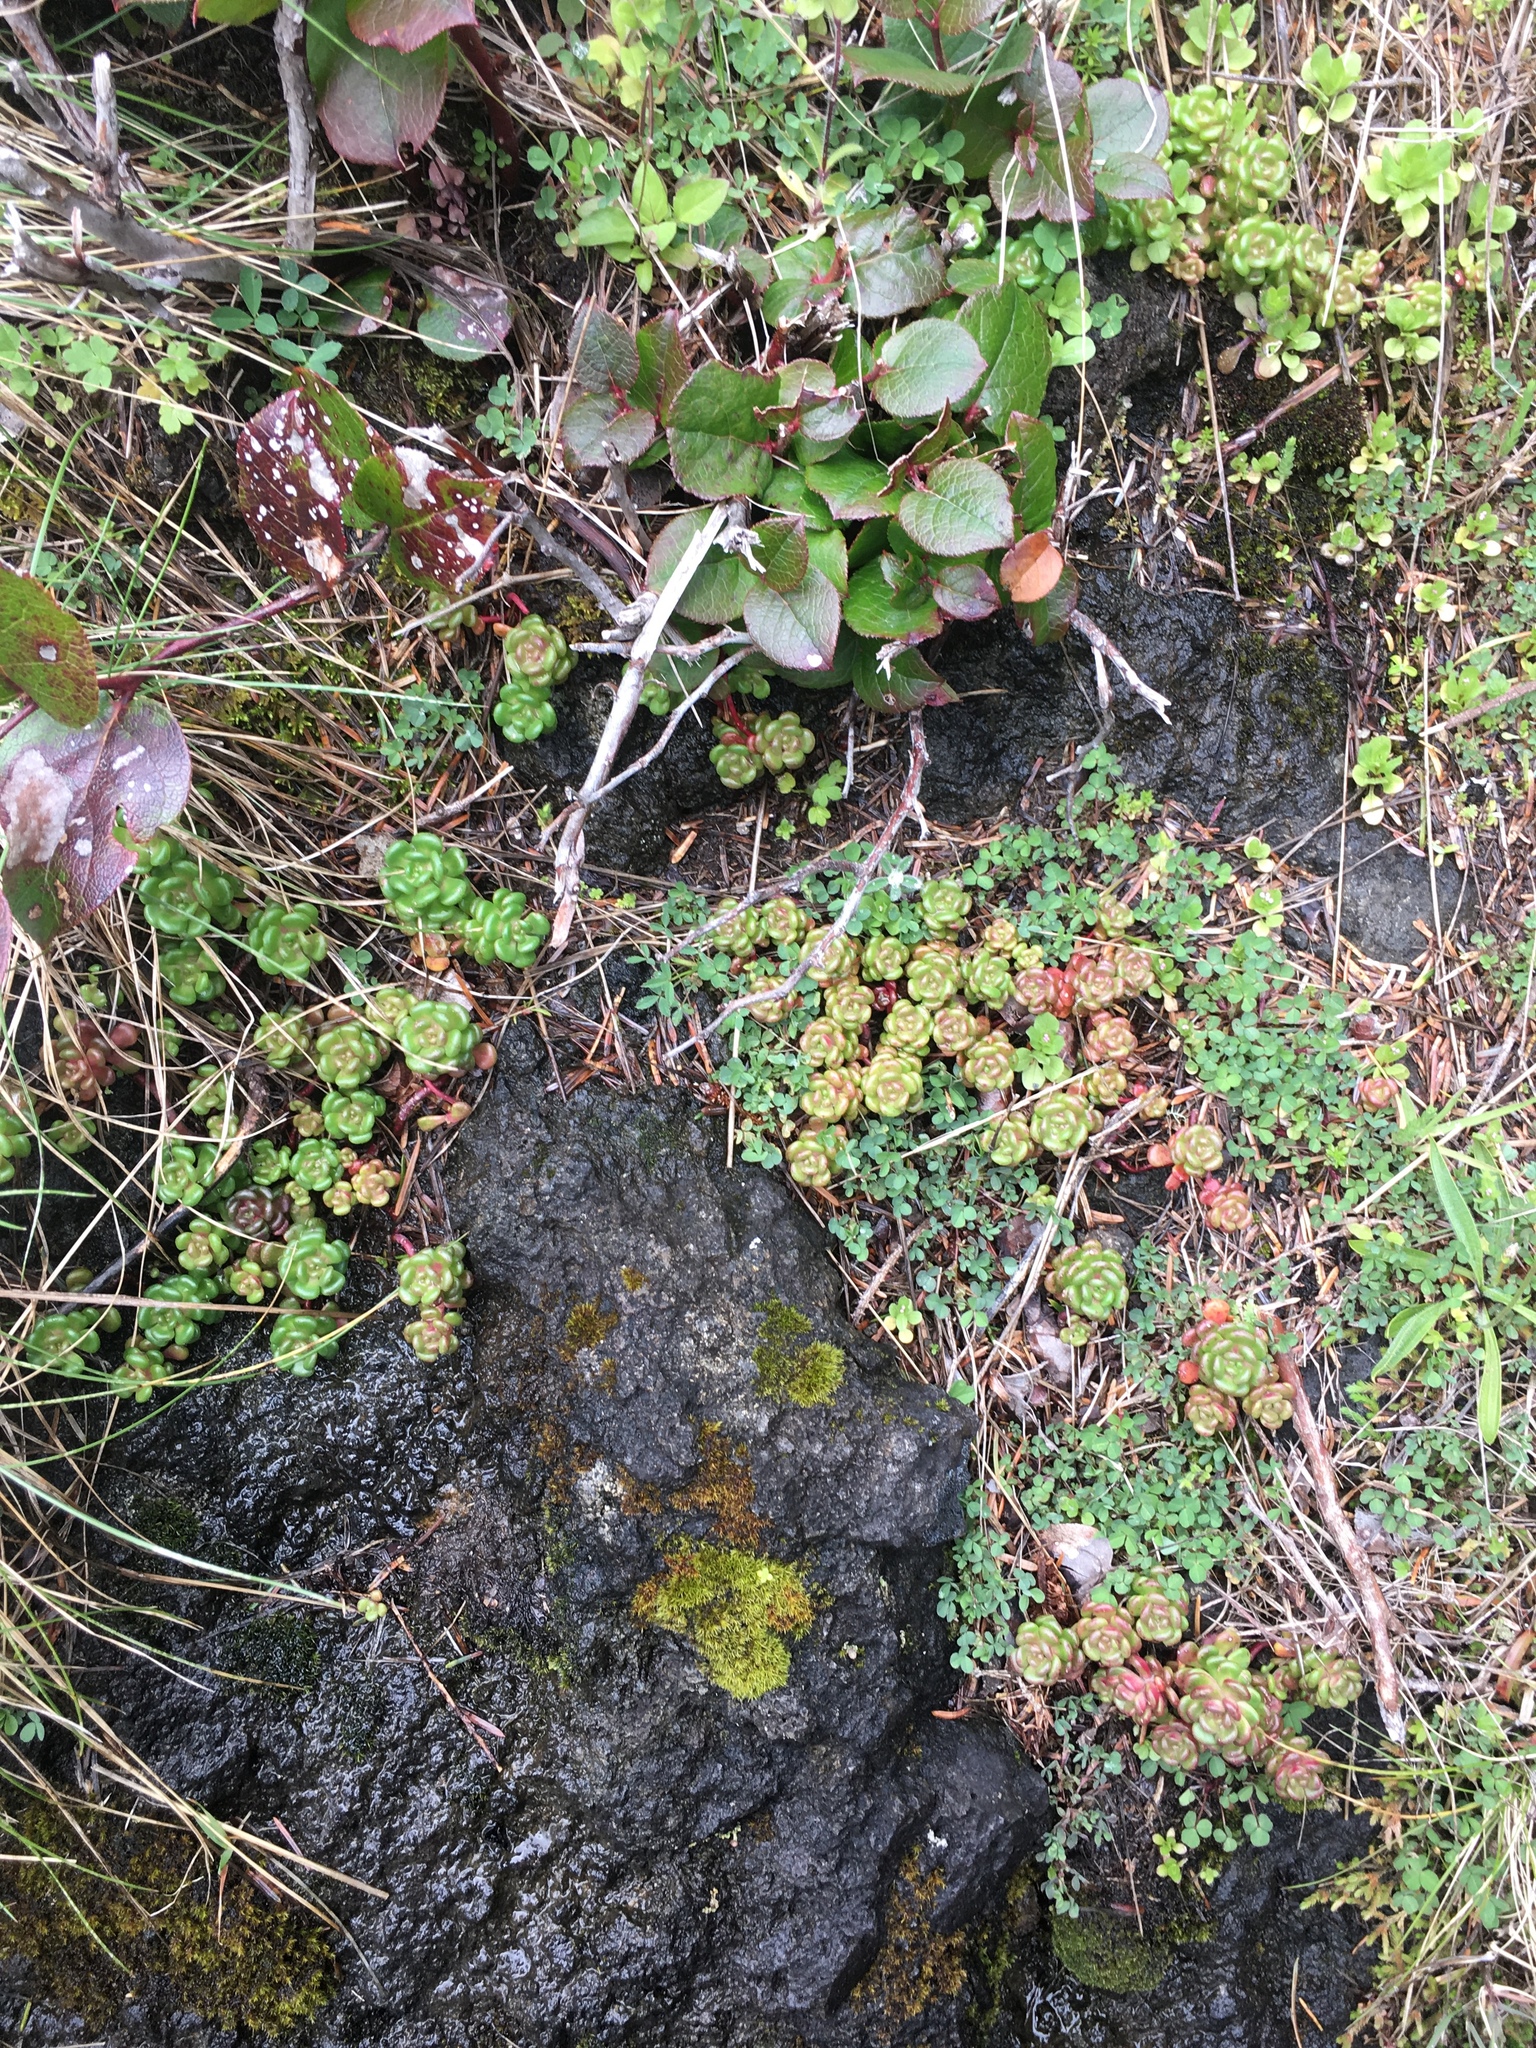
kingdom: Plantae
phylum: Tracheophyta
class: Magnoliopsida
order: Saxifragales
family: Crassulaceae
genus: Sedum
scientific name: Sedum oreganum
